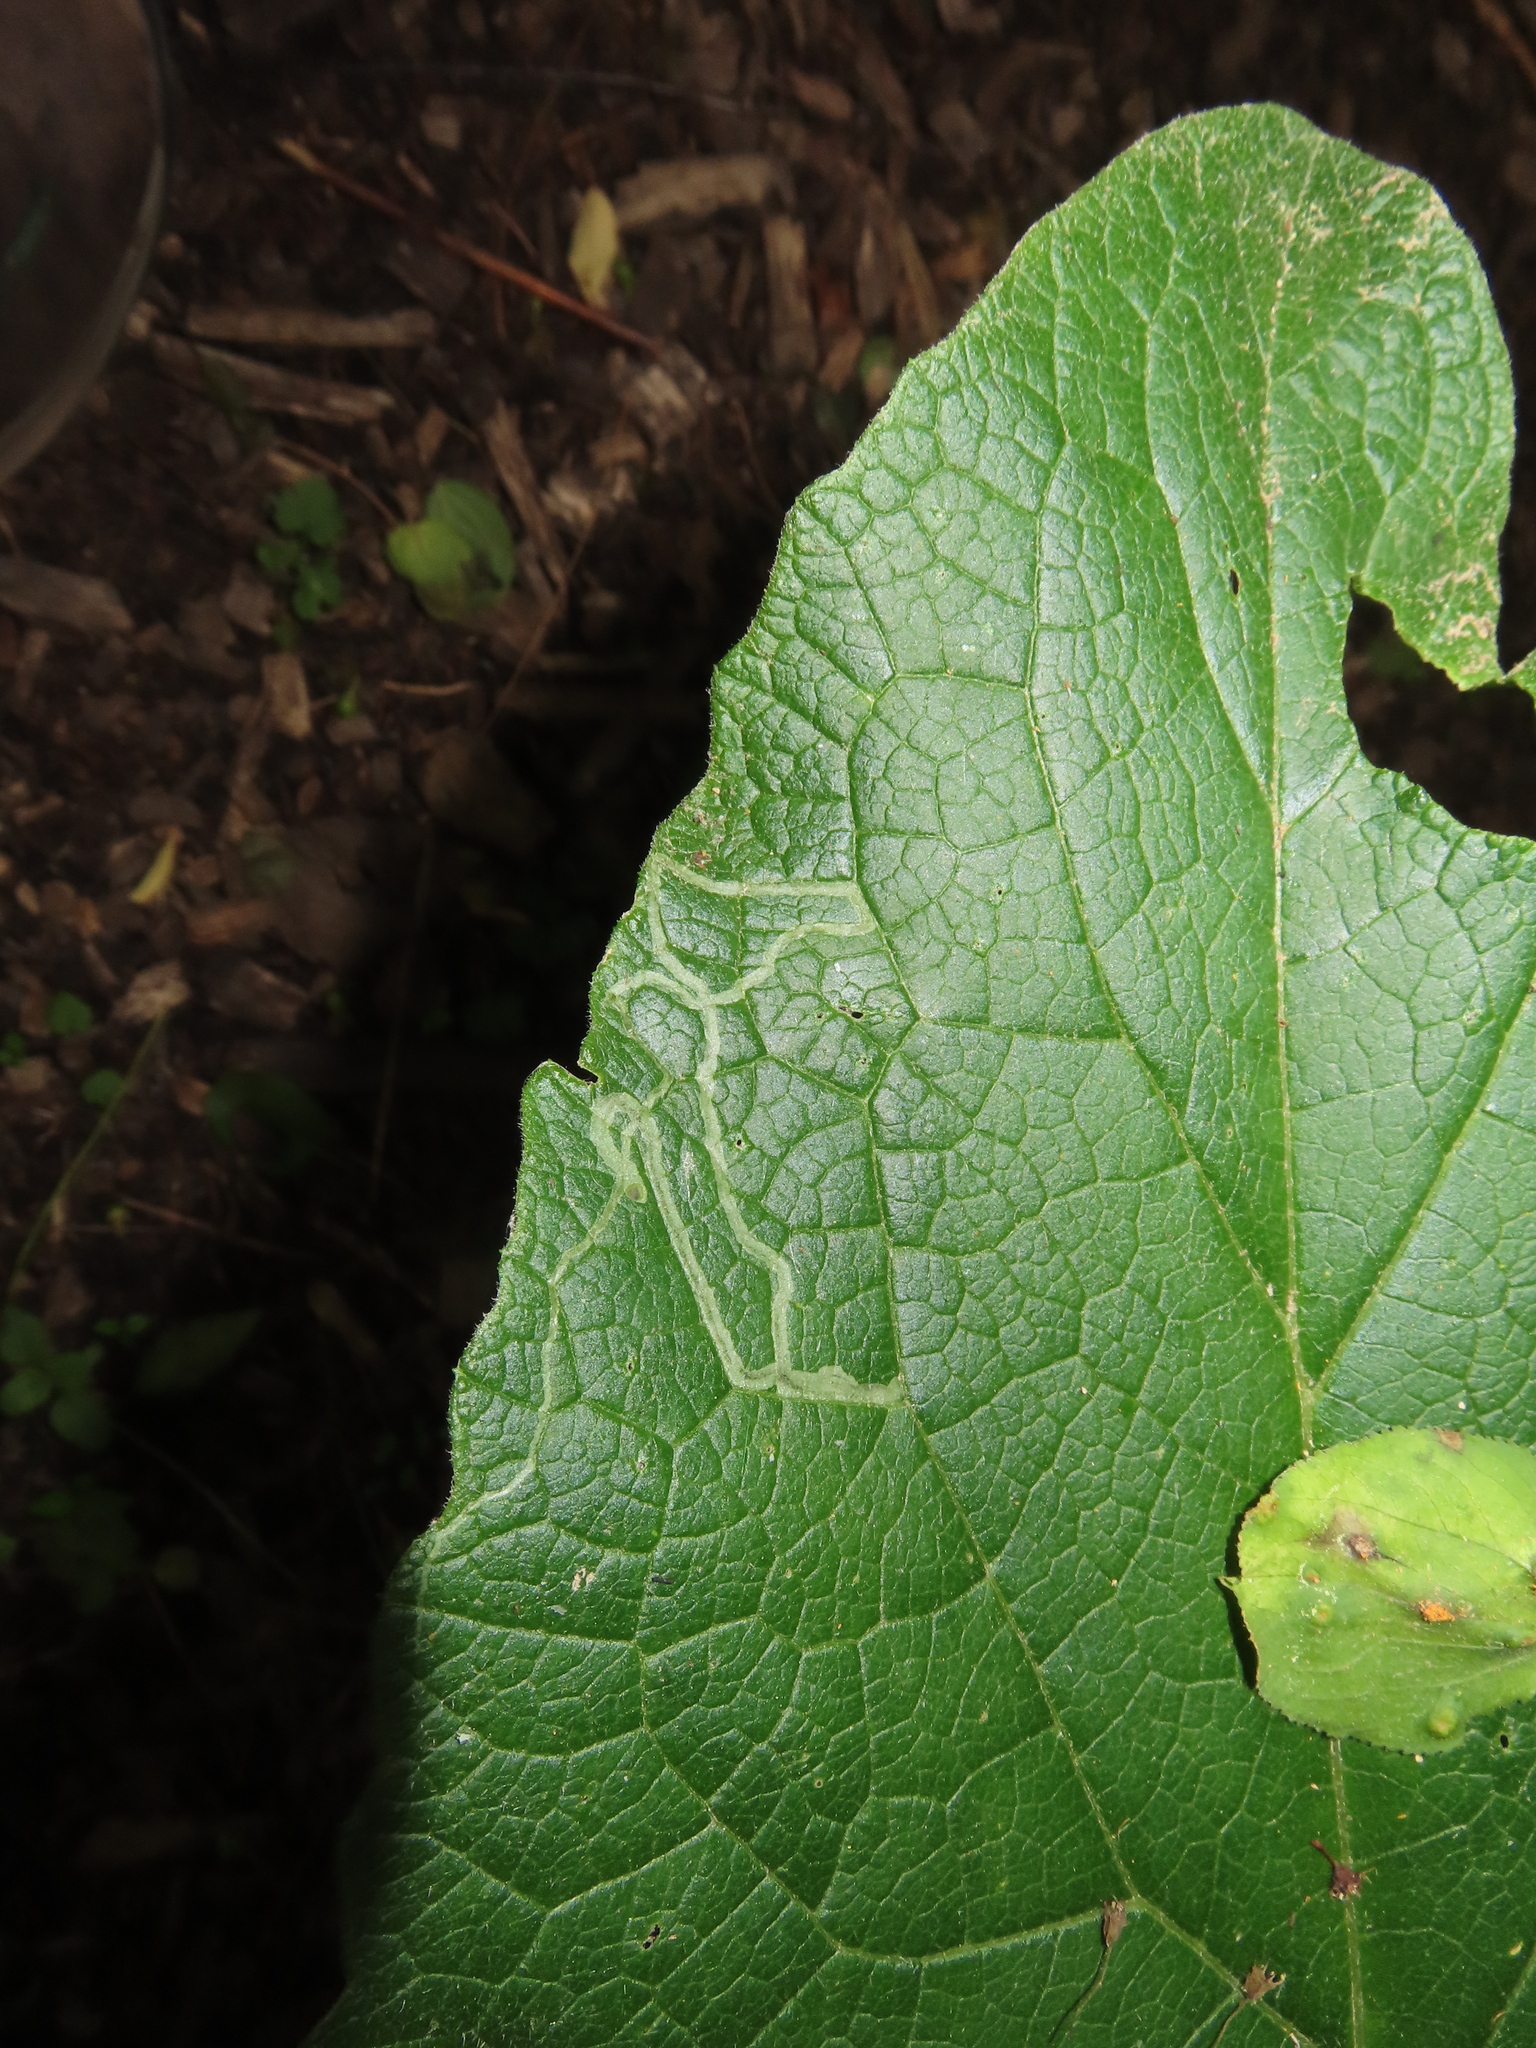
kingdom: Animalia
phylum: Arthropoda
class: Insecta
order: Diptera
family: Agromyzidae
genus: Liriomyza
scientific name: Liriomyza arctii
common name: Burdock leafminer
